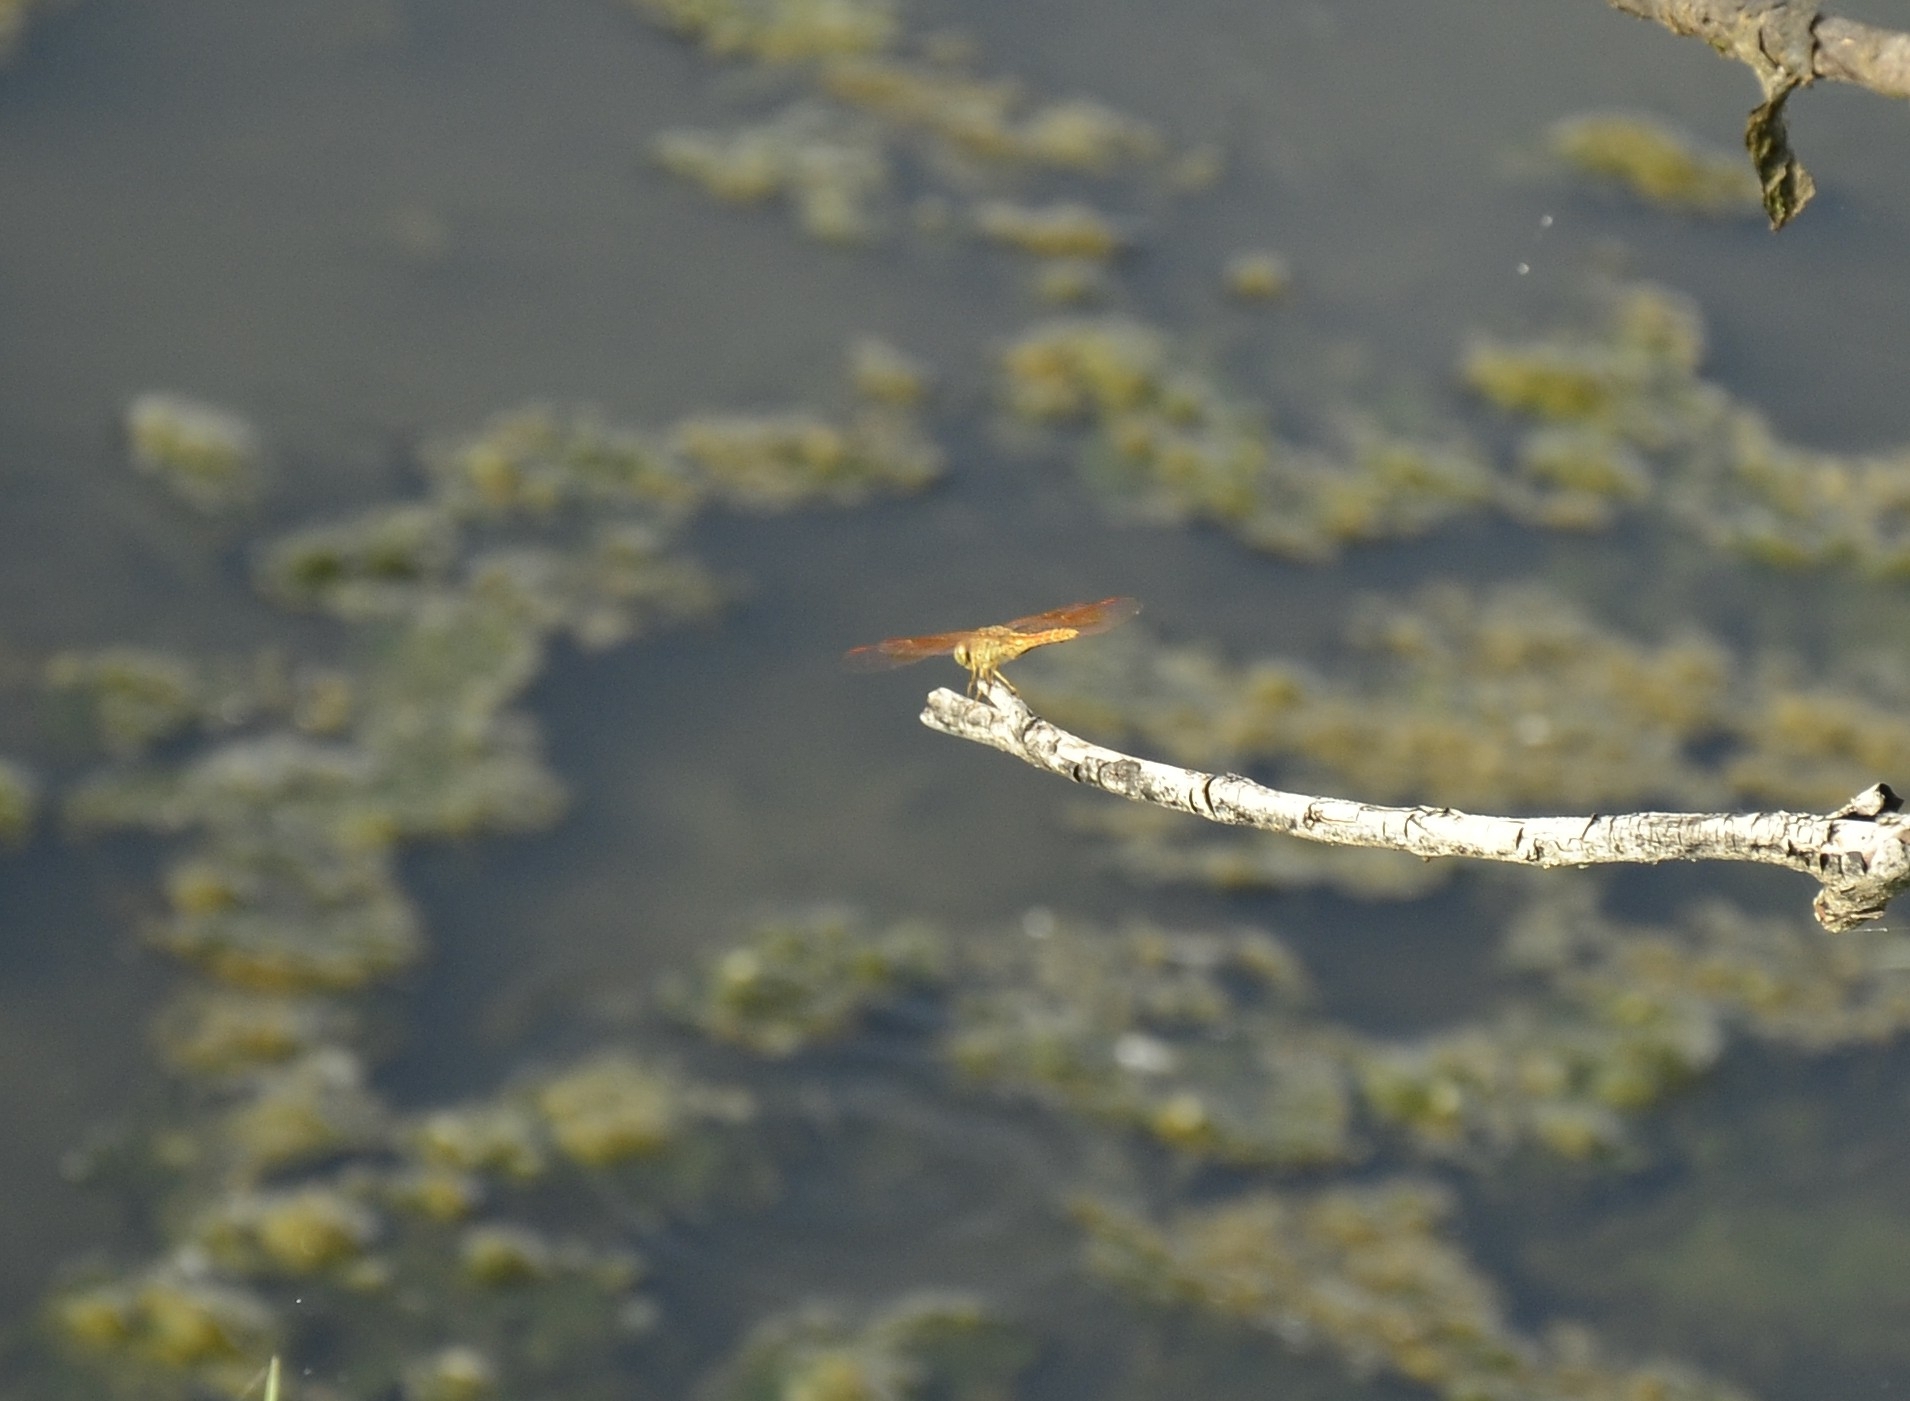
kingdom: Animalia
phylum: Arthropoda
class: Insecta
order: Odonata
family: Libellulidae
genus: Brachythemis
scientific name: Brachythemis contaminata
